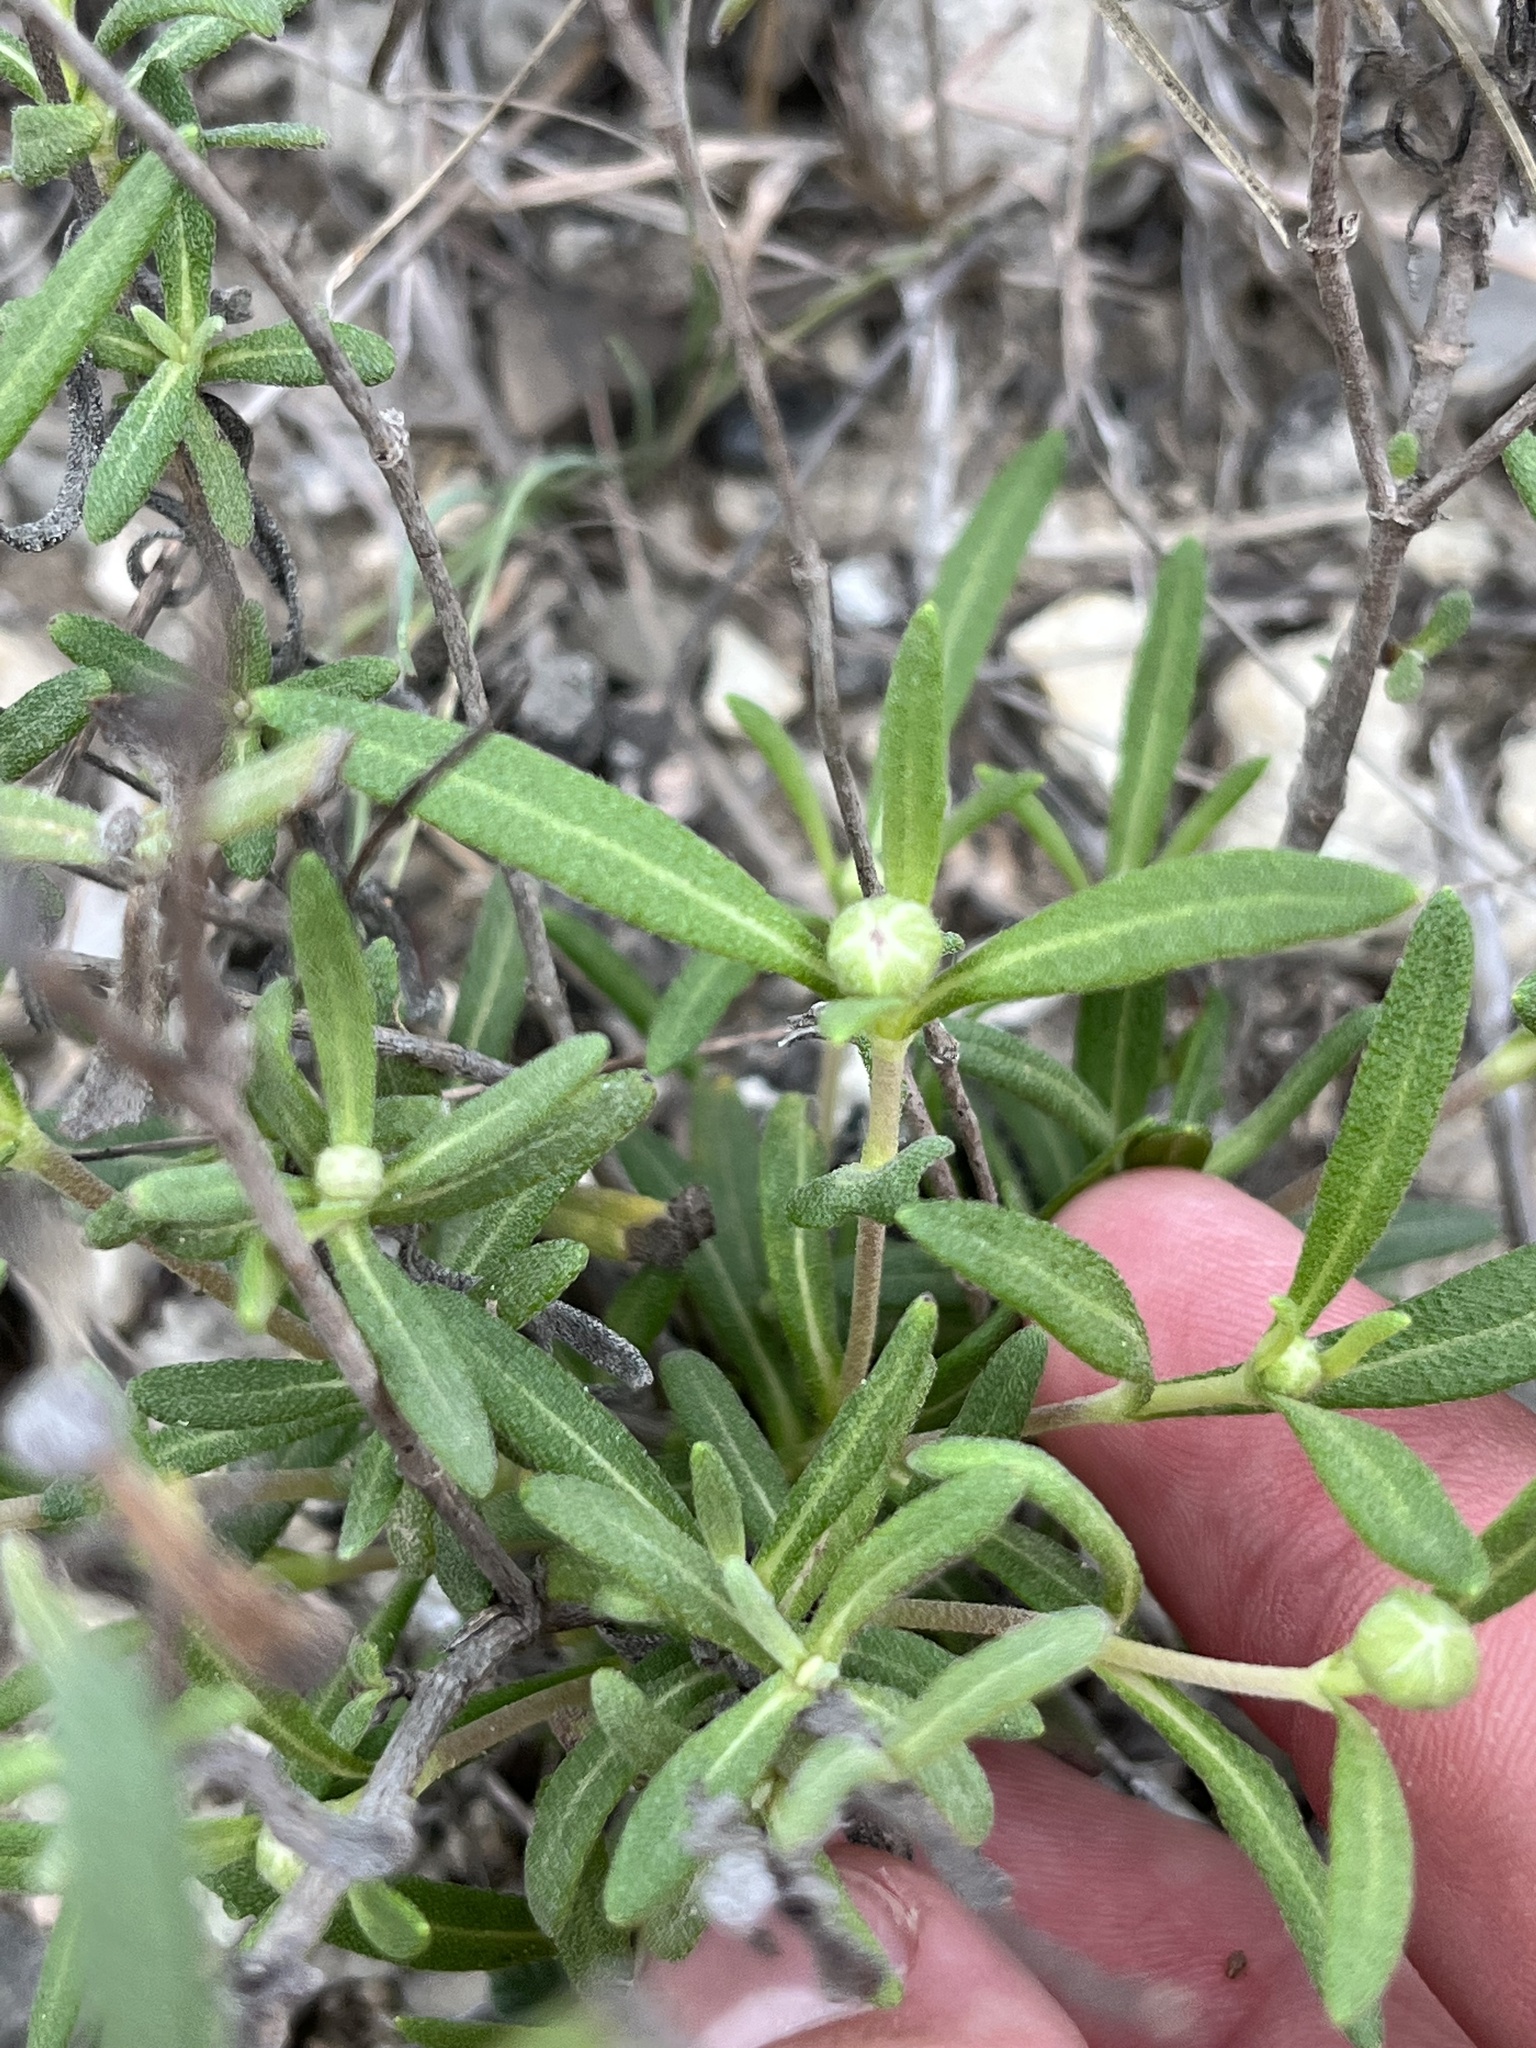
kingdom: Plantae
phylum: Tracheophyta
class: Magnoliopsida
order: Asterales
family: Asteraceae
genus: Melampodium
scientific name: Melampodium leucanthum
